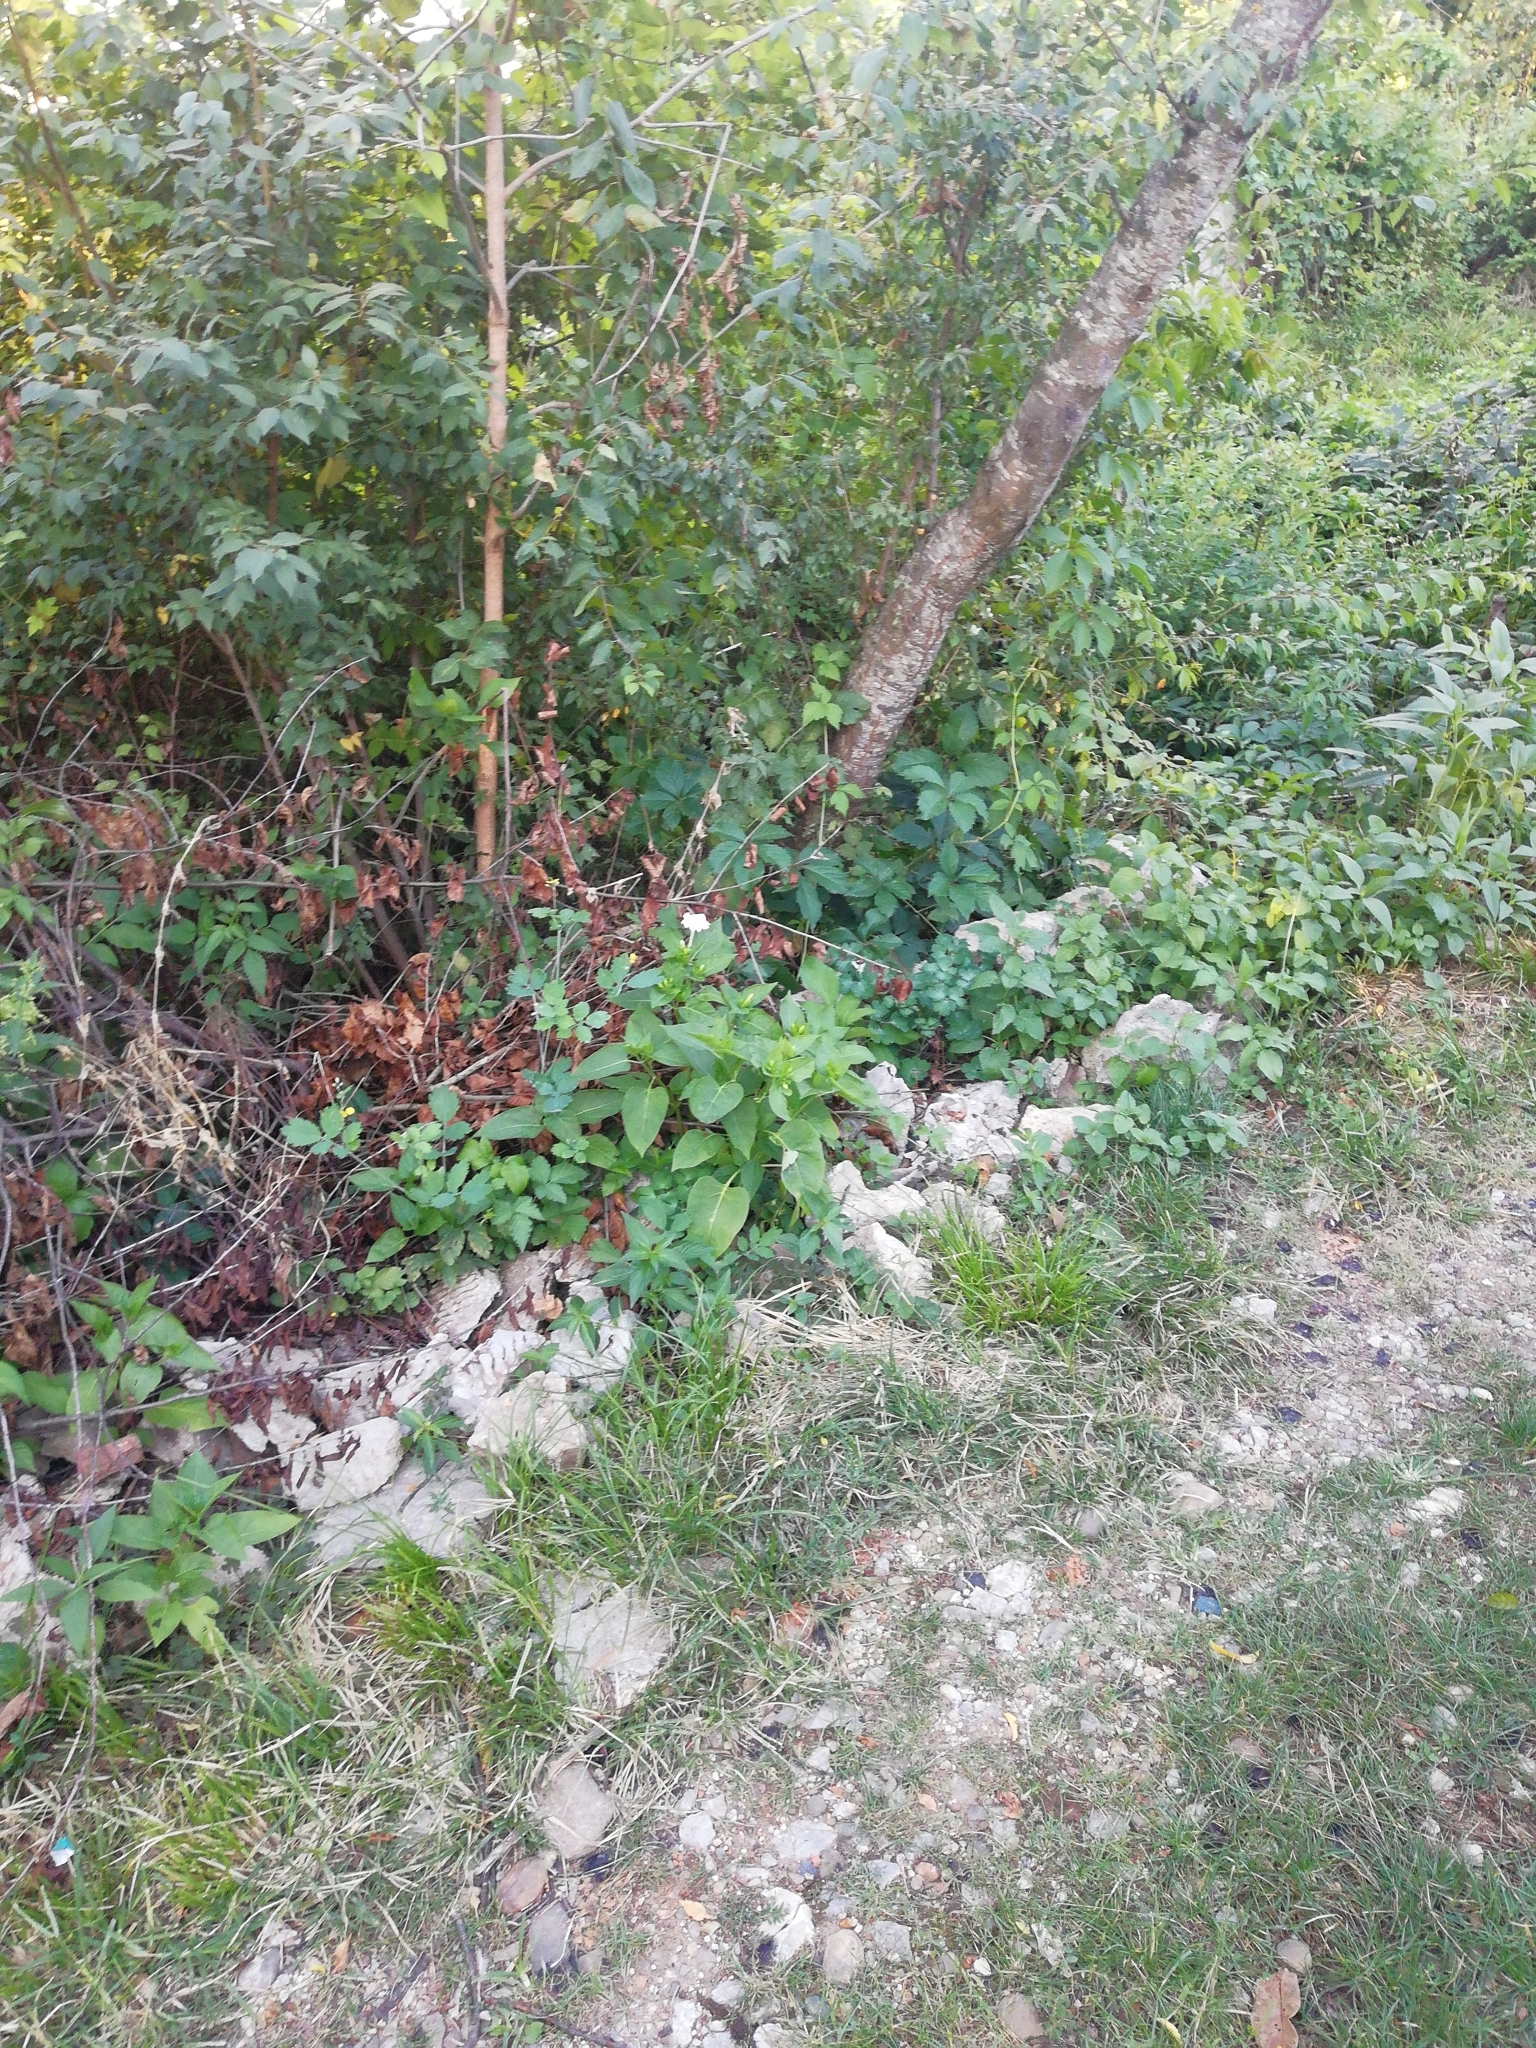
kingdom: Plantae
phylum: Tracheophyta
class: Magnoliopsida
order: Caryophyllales
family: Nyctaginaceae
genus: Mirabilis
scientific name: Mirabilis jalapa
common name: Marvel-of-peru
